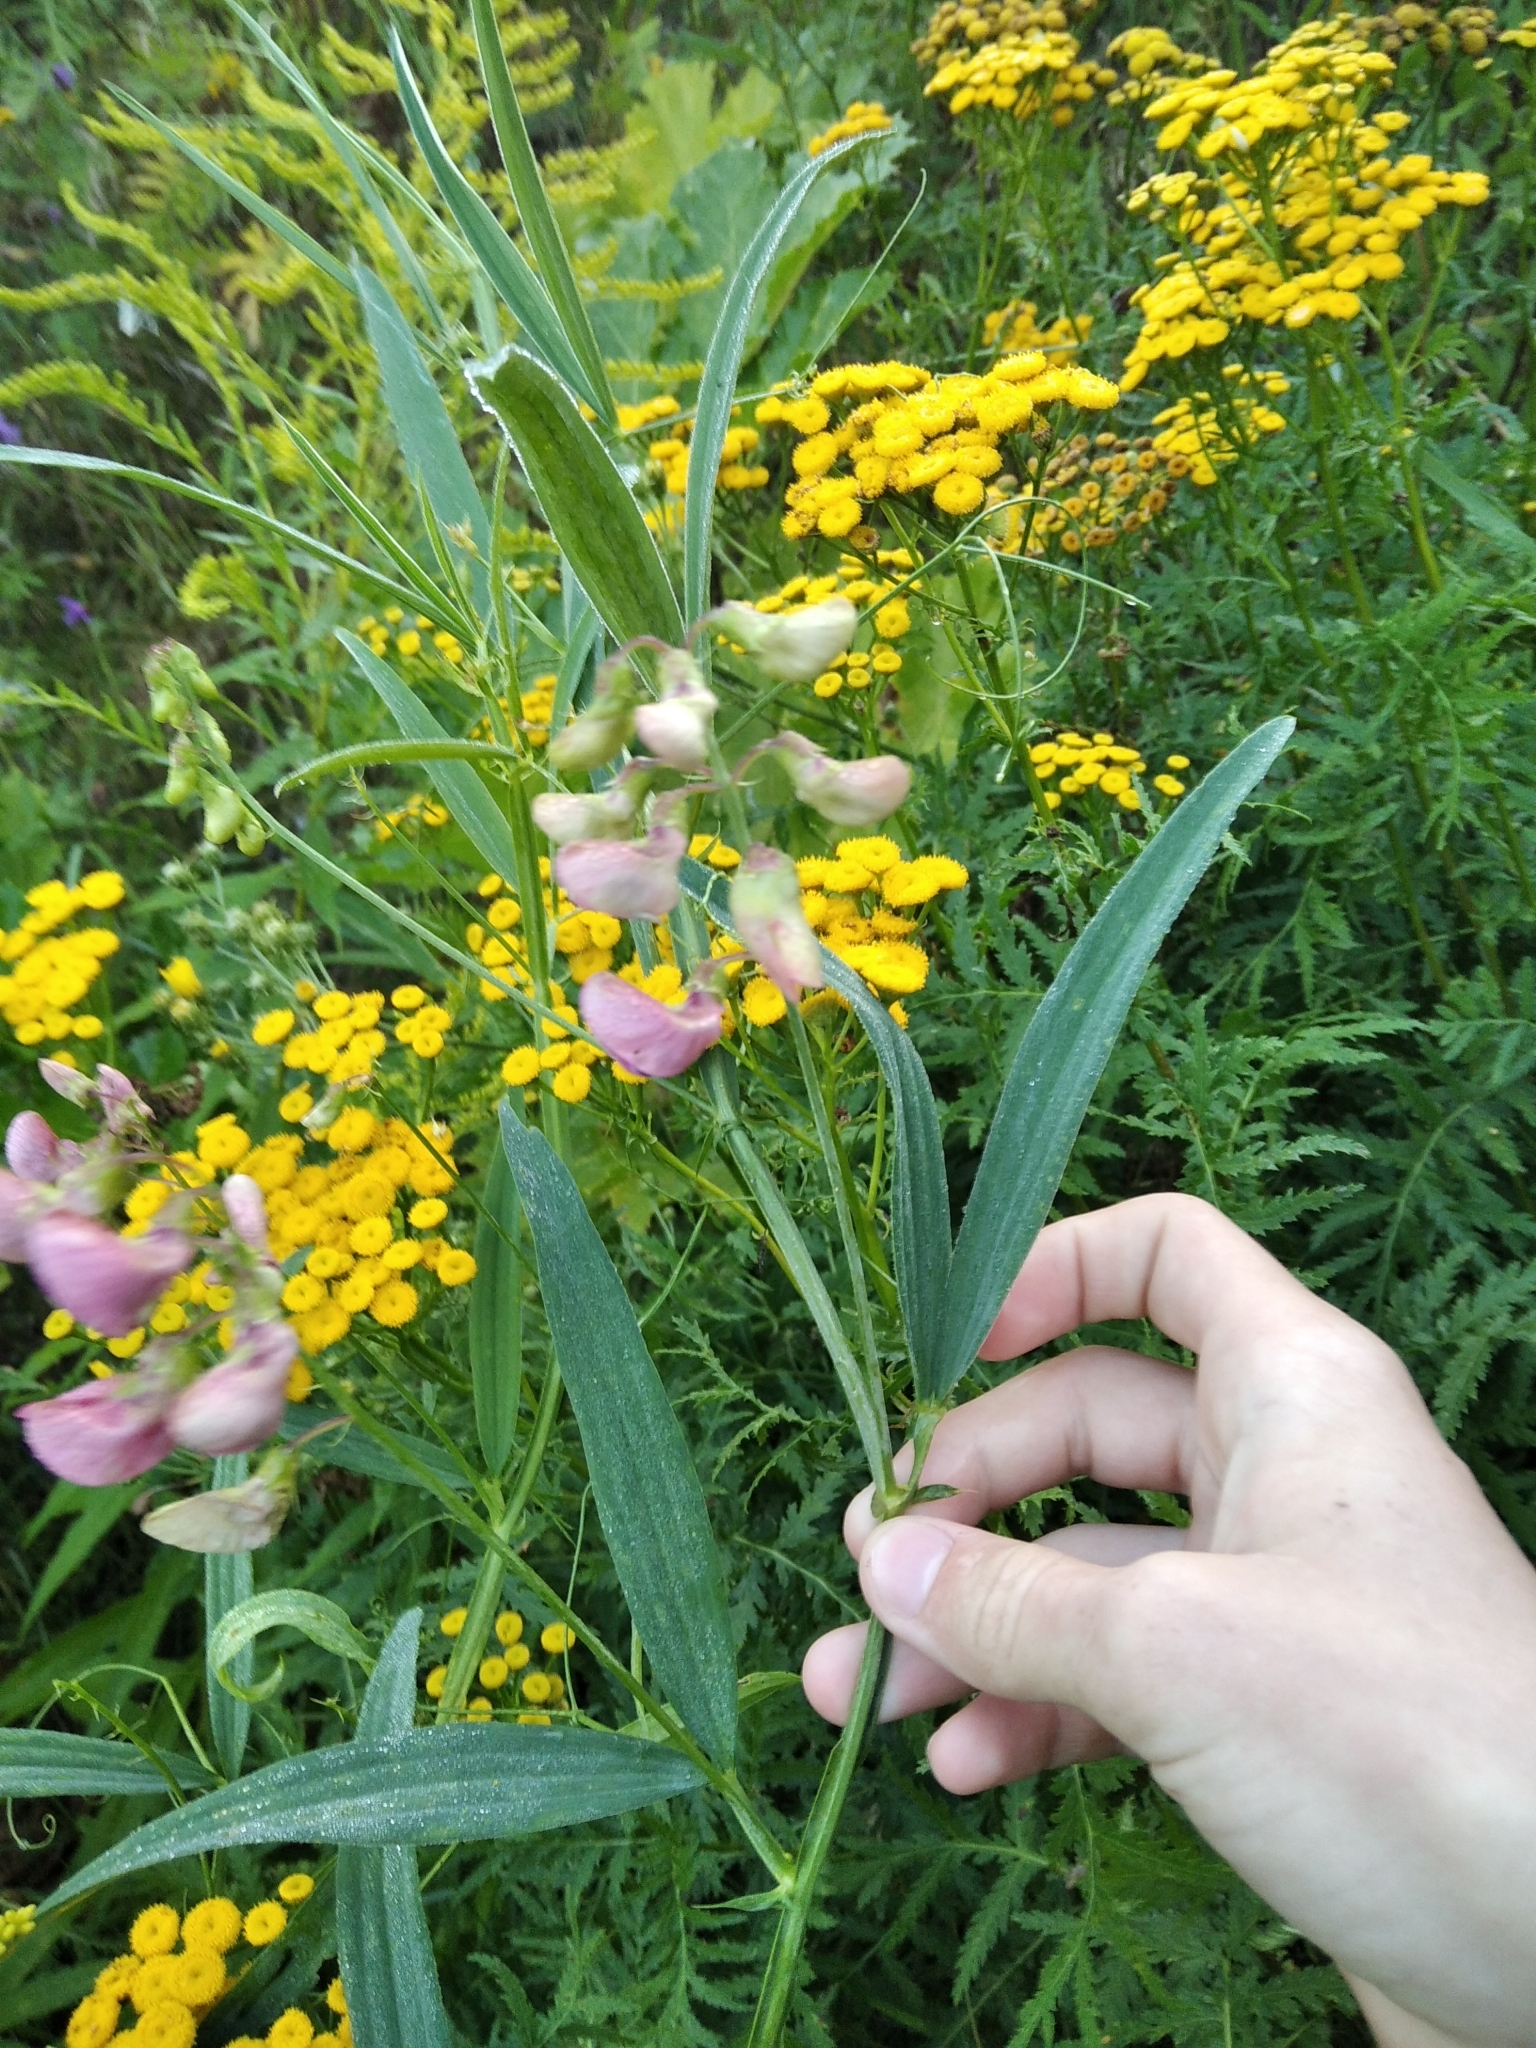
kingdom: Plantae
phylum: Tracheophyta
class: Magnoliopsida
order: Fabales
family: Fabaceae
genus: Lathyrus
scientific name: Lathyrus sylvestris
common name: Flat pea
